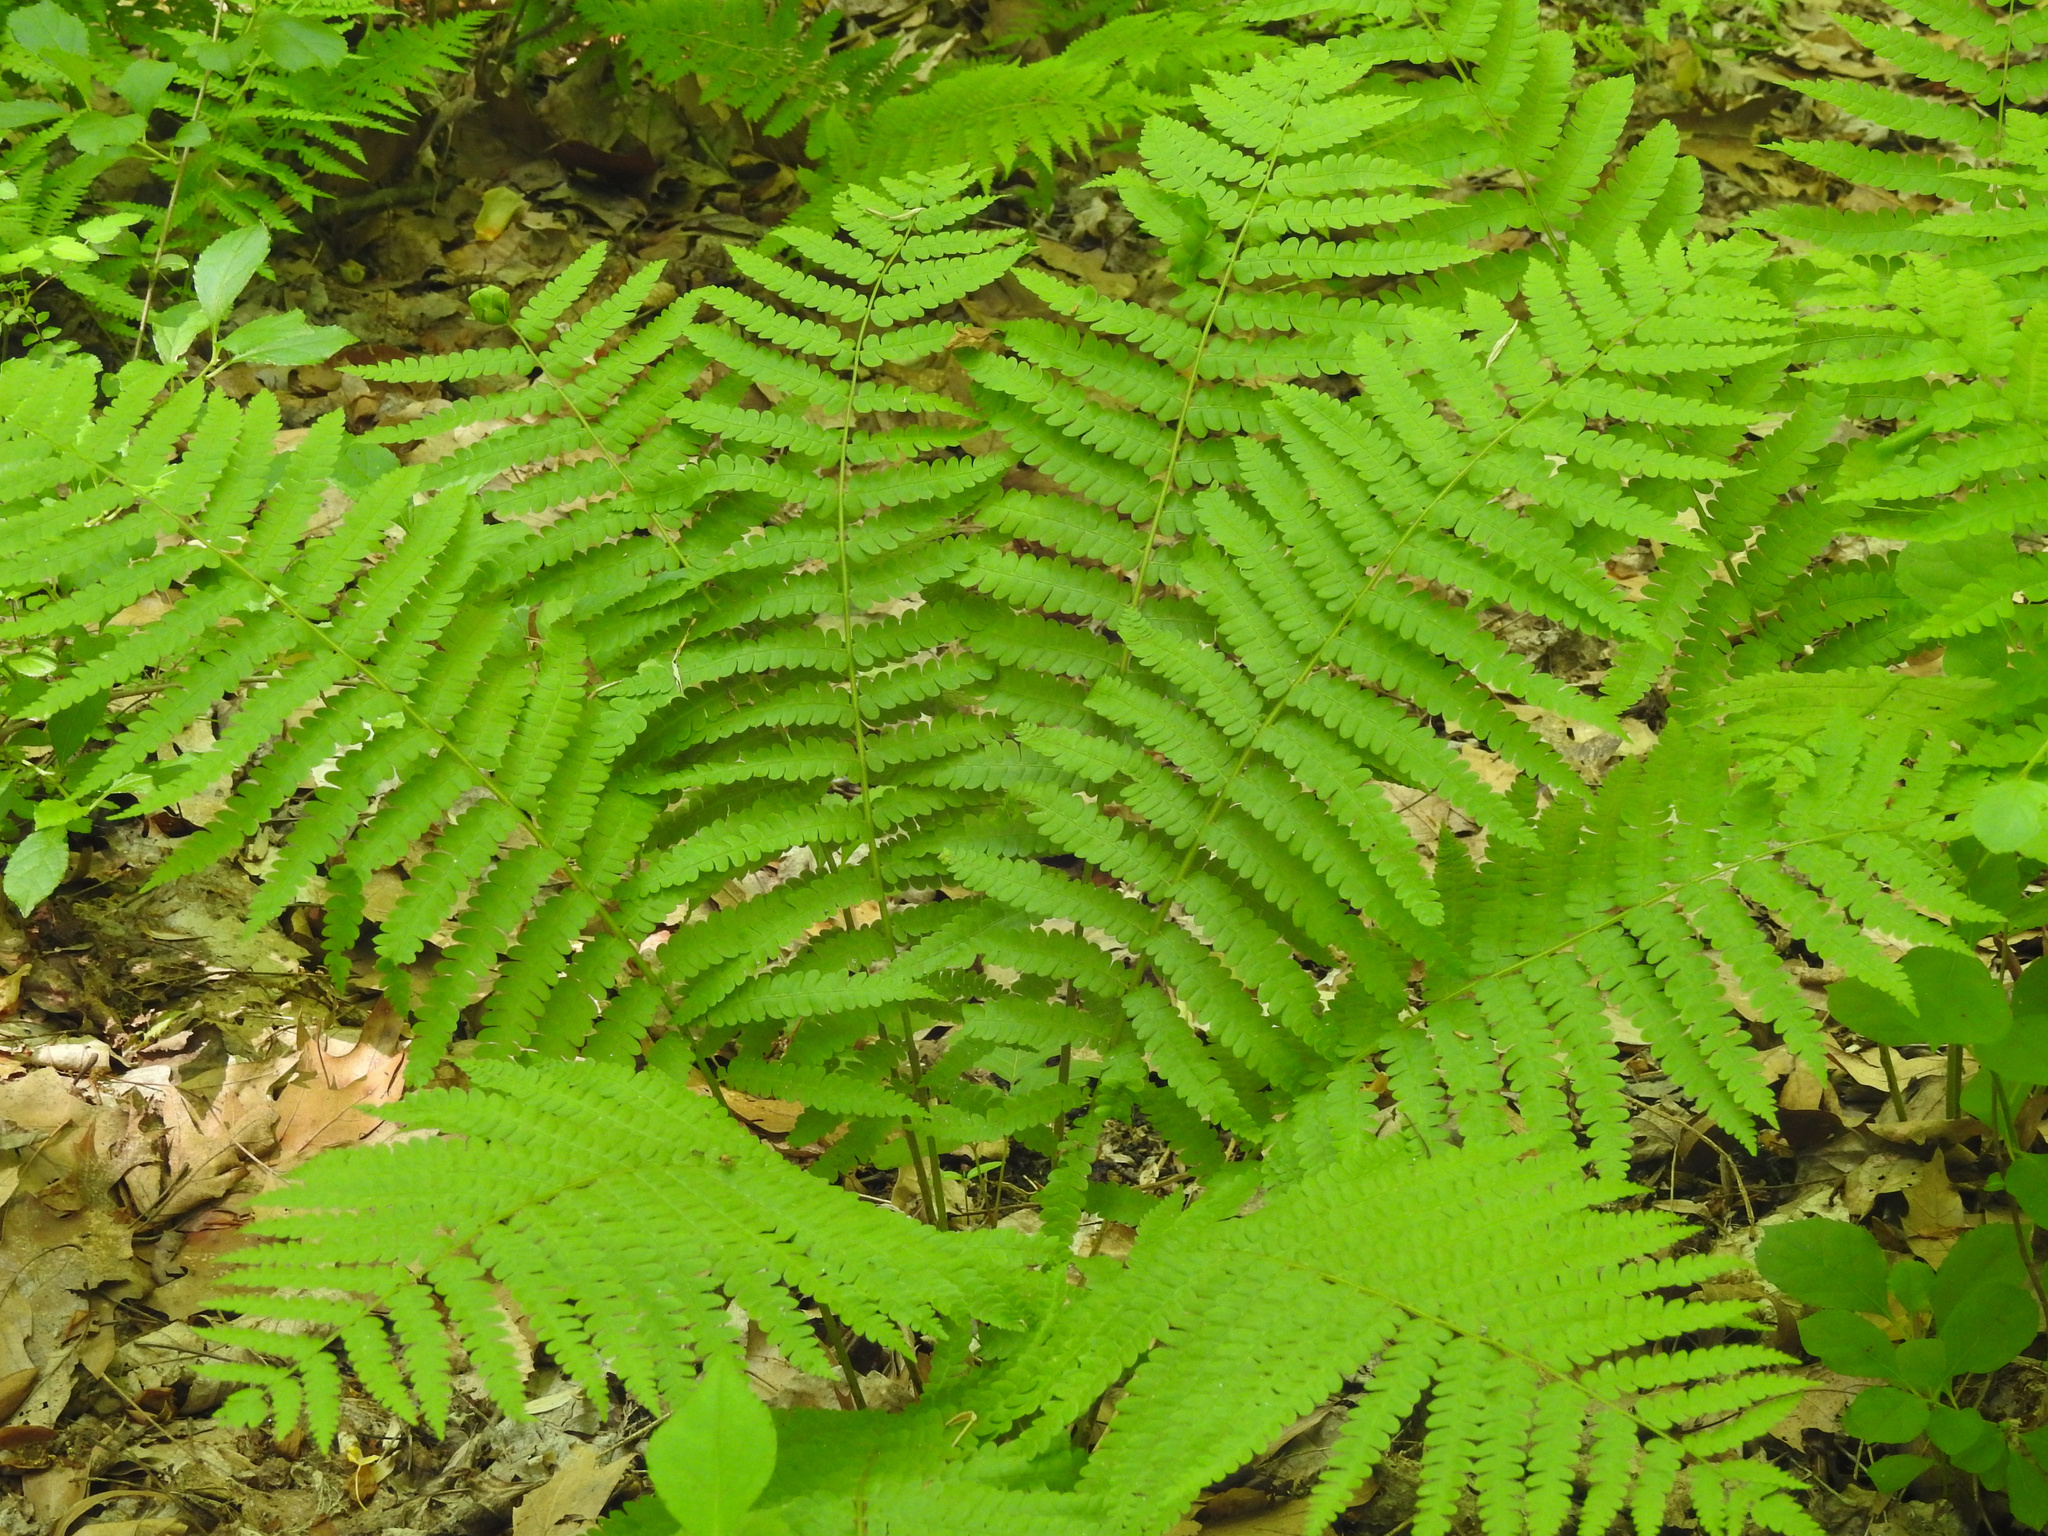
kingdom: Plantae
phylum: Tracheophyta
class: Polypodiopsida
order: Osmundales
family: Osmundaceae
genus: Osmundastrum
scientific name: Osmundastrum cinnamomeum
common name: Cinnamon fern
